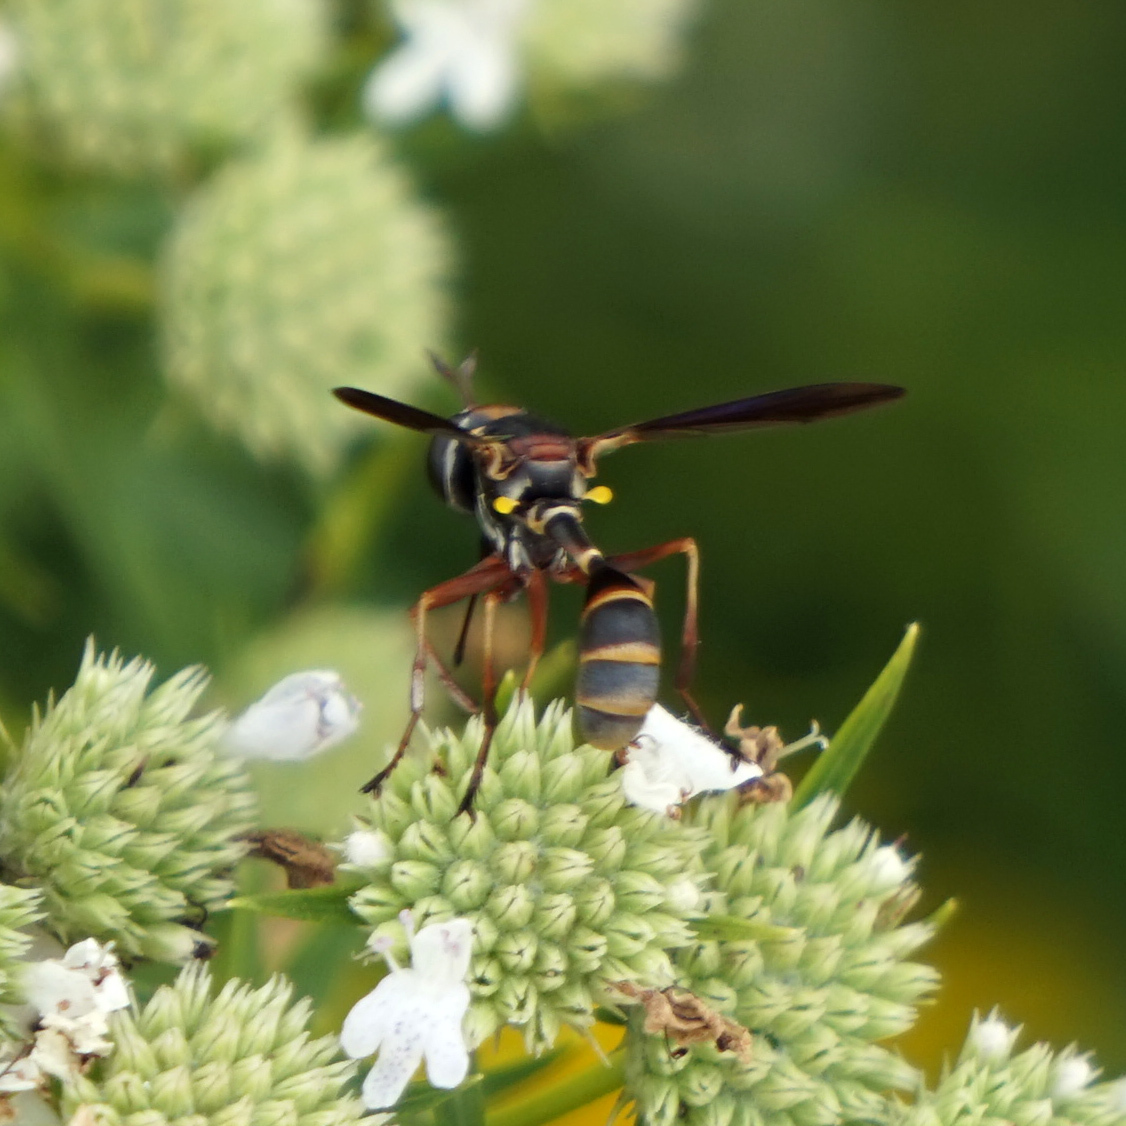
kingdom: Animalia
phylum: Arthropoda
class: Insecta
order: Diptera
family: Conopidae
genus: Physocephala
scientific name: Physocephala sagittaria
